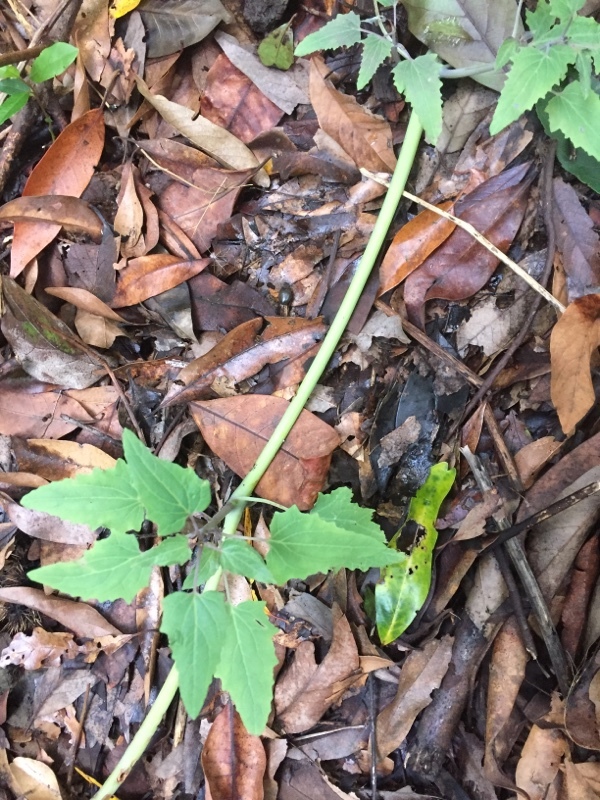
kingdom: Plantae
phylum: Tracheophyta
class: Magnoliopsida
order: Asterales
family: Campanulaceae
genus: Canarina
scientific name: Canarina canariensis
